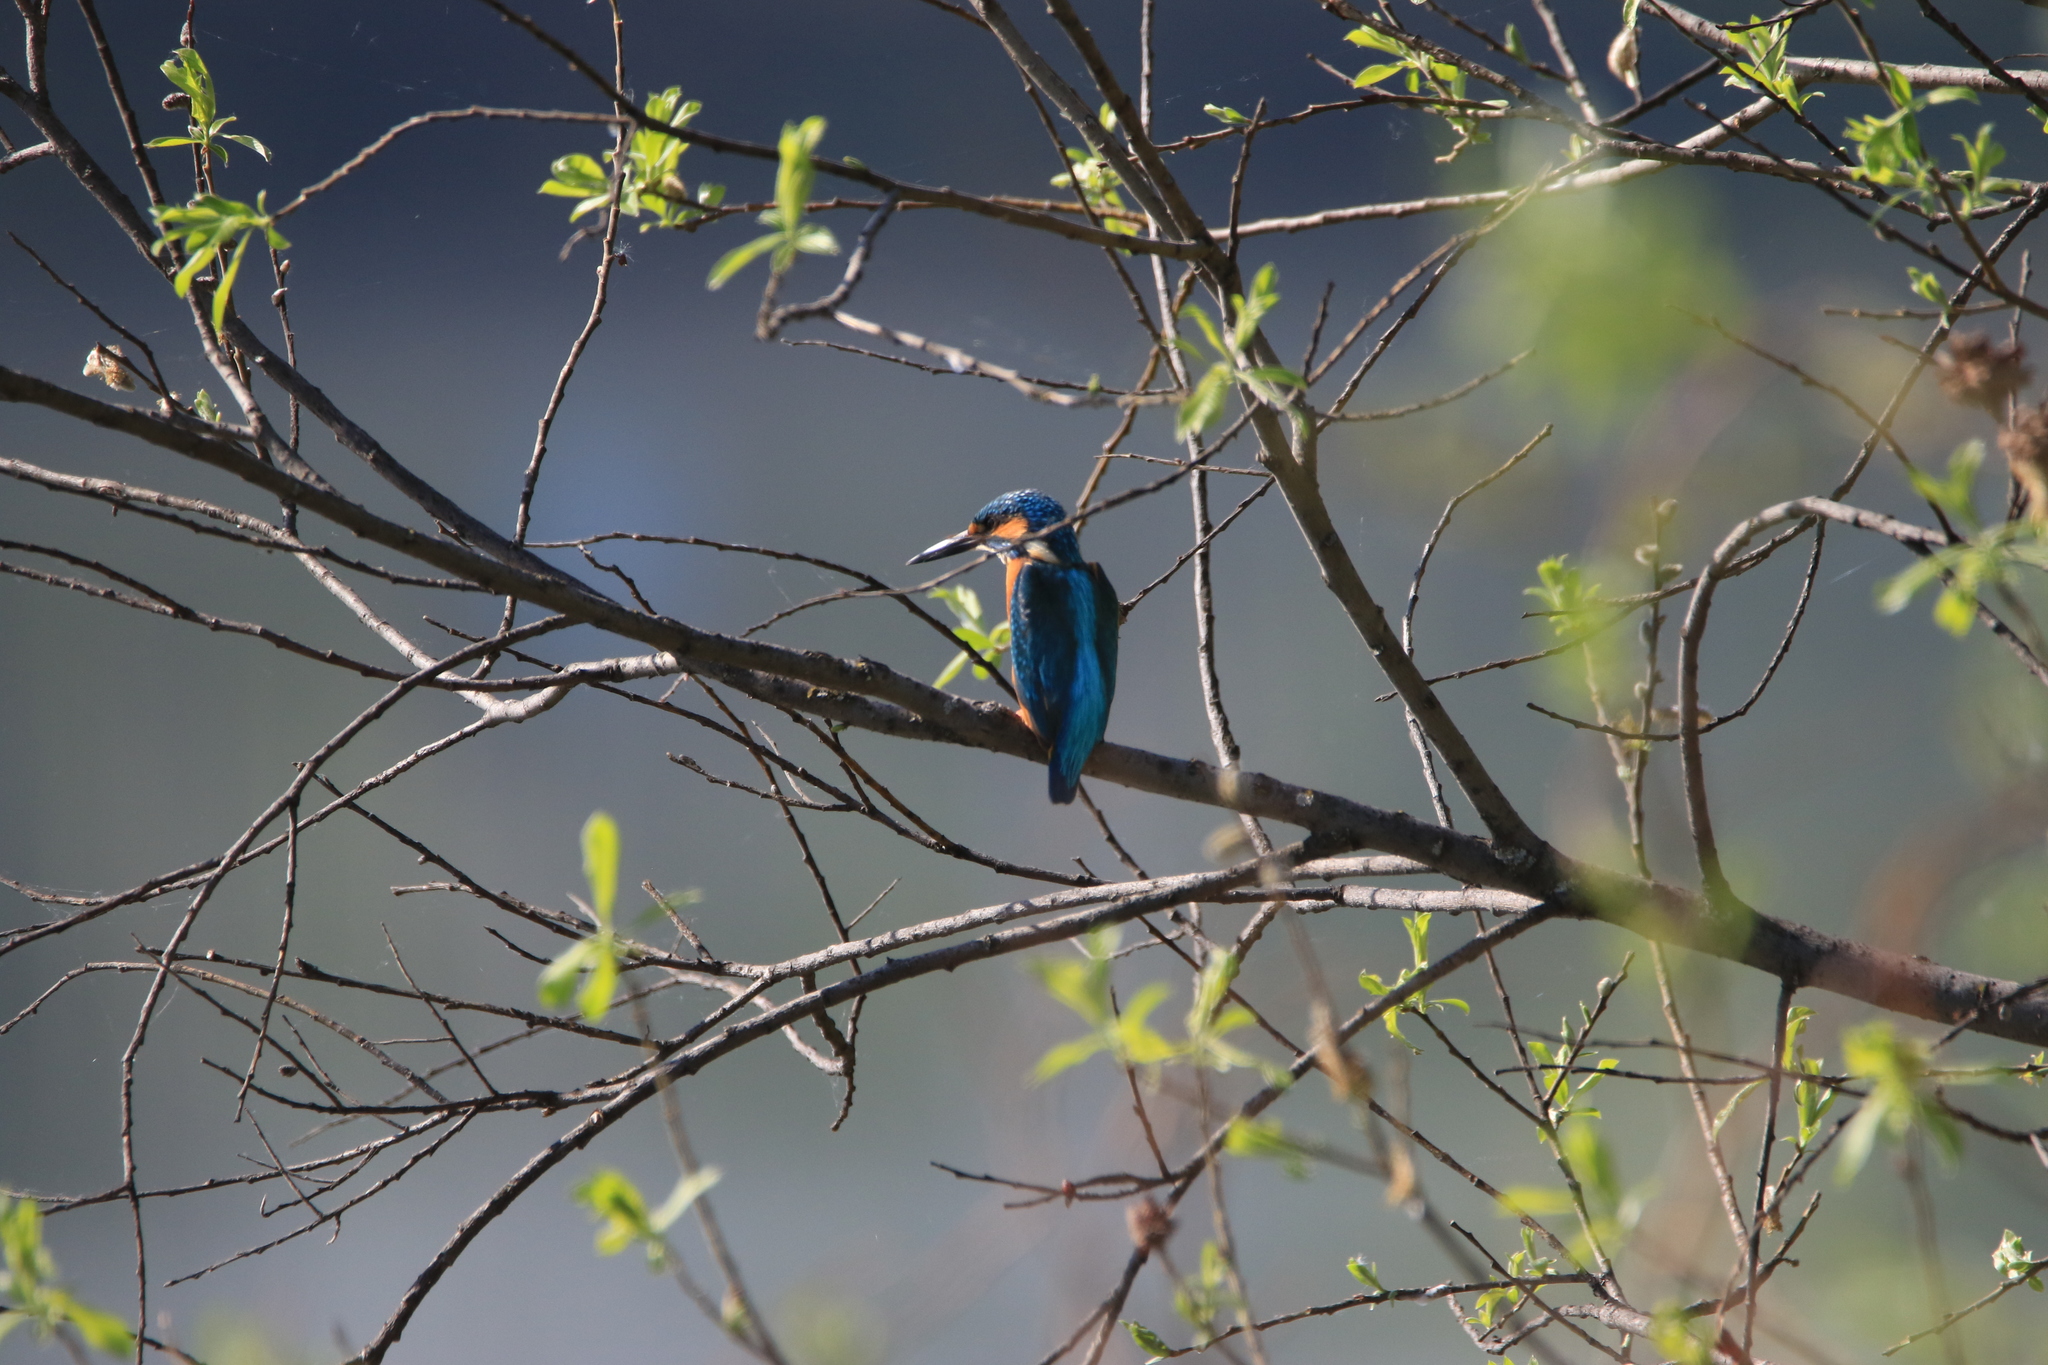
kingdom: Animalia
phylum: Chordata
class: Aves
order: Coraciiformes
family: Alcedinidae
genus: Alcedo
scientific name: Alcedo atthis
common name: Common kingfisher
